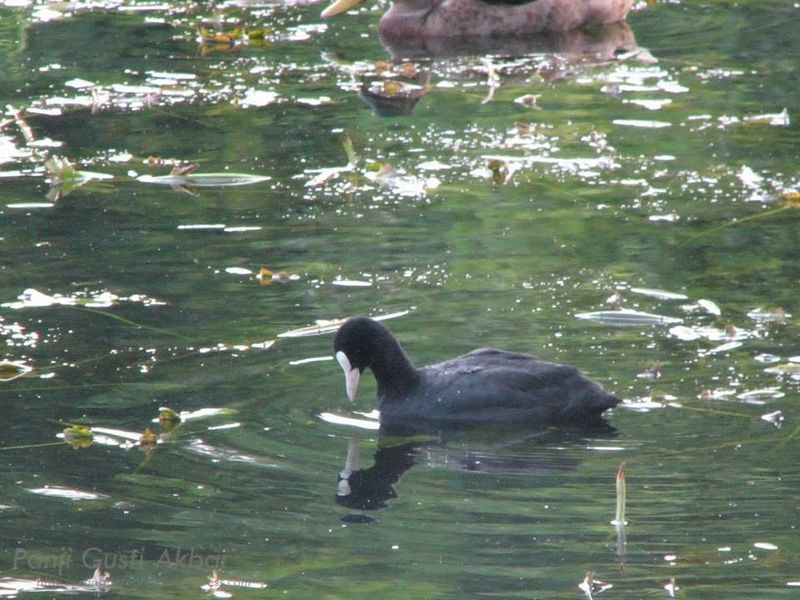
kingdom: Animalia
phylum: Chordata
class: Aves
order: Gruiformes
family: Rallidae
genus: Fulica
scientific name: Fulica atra
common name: Eurasian coot
